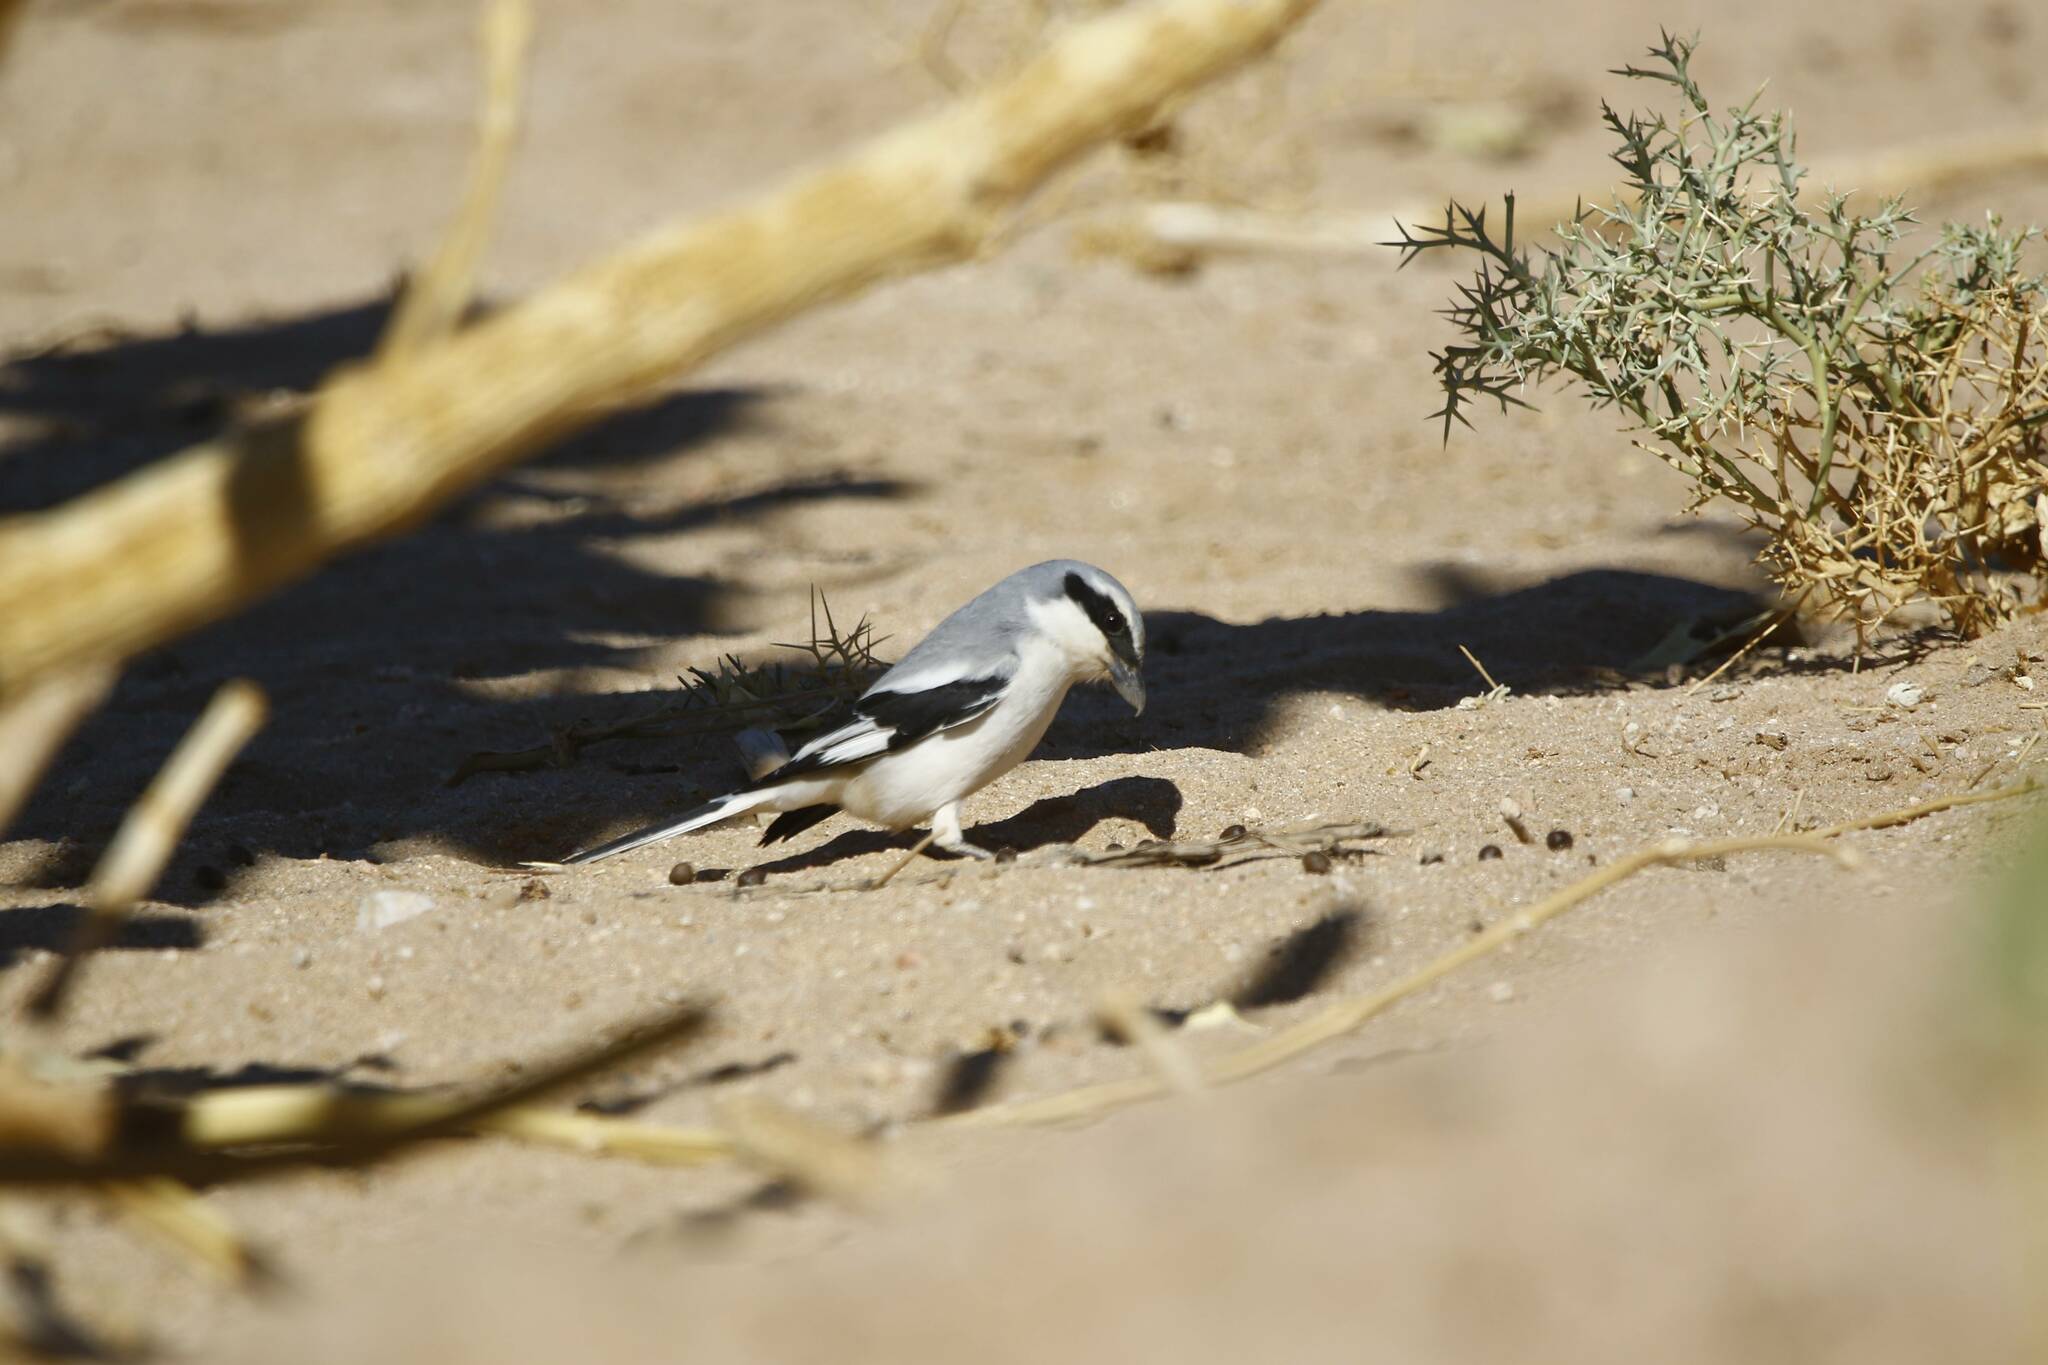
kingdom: Animalia
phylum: Chordata
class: Aves
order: Passeriformes
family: Laniidae
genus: Lanius
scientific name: Lanius excubitor
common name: Great grey shrike
